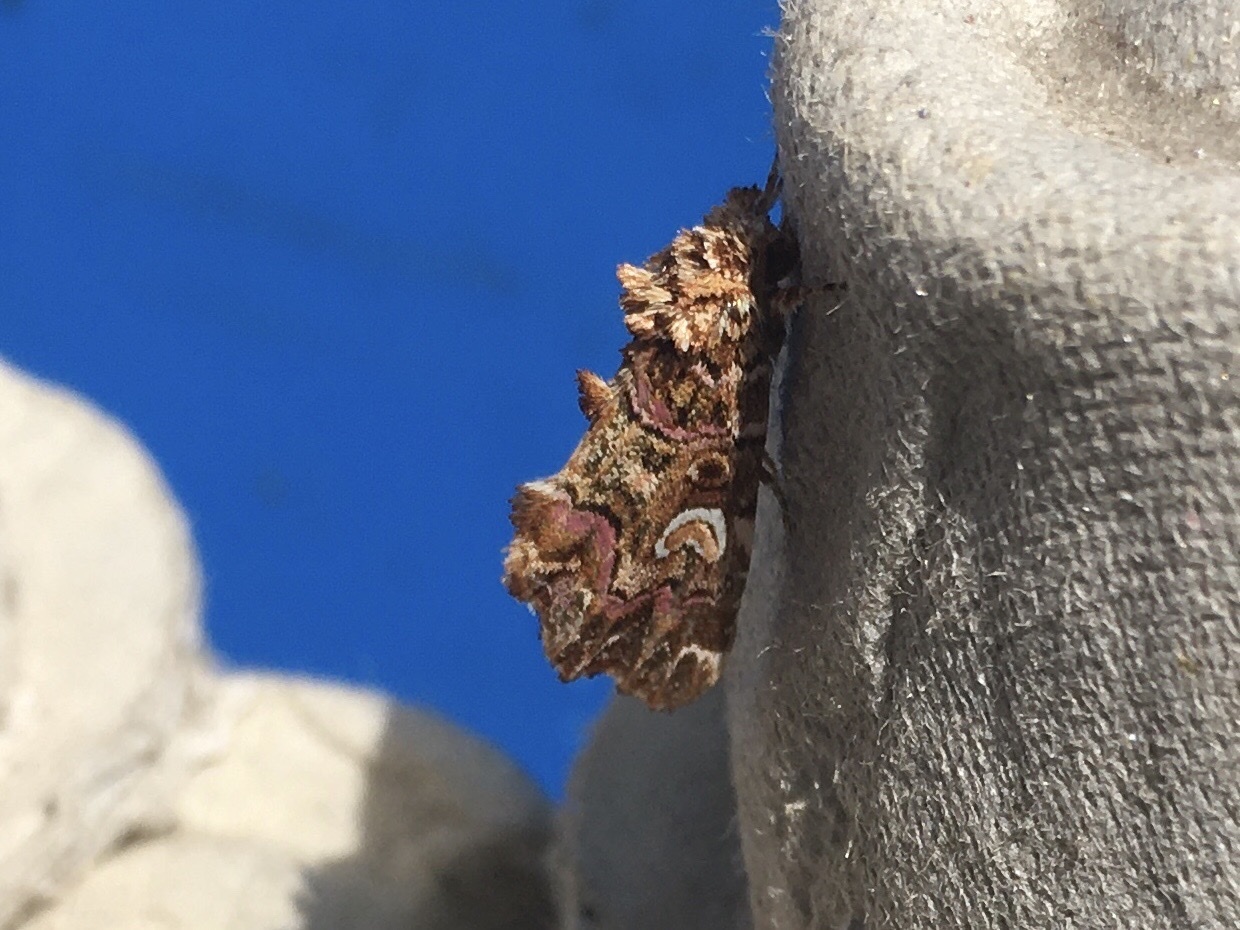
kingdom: Animalia
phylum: Arthropoda
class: Insecta
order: Lepidoptera
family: Noctuidae
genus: Callopistria
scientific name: Callopistria mollissima
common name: Pink-shaded fern moth
